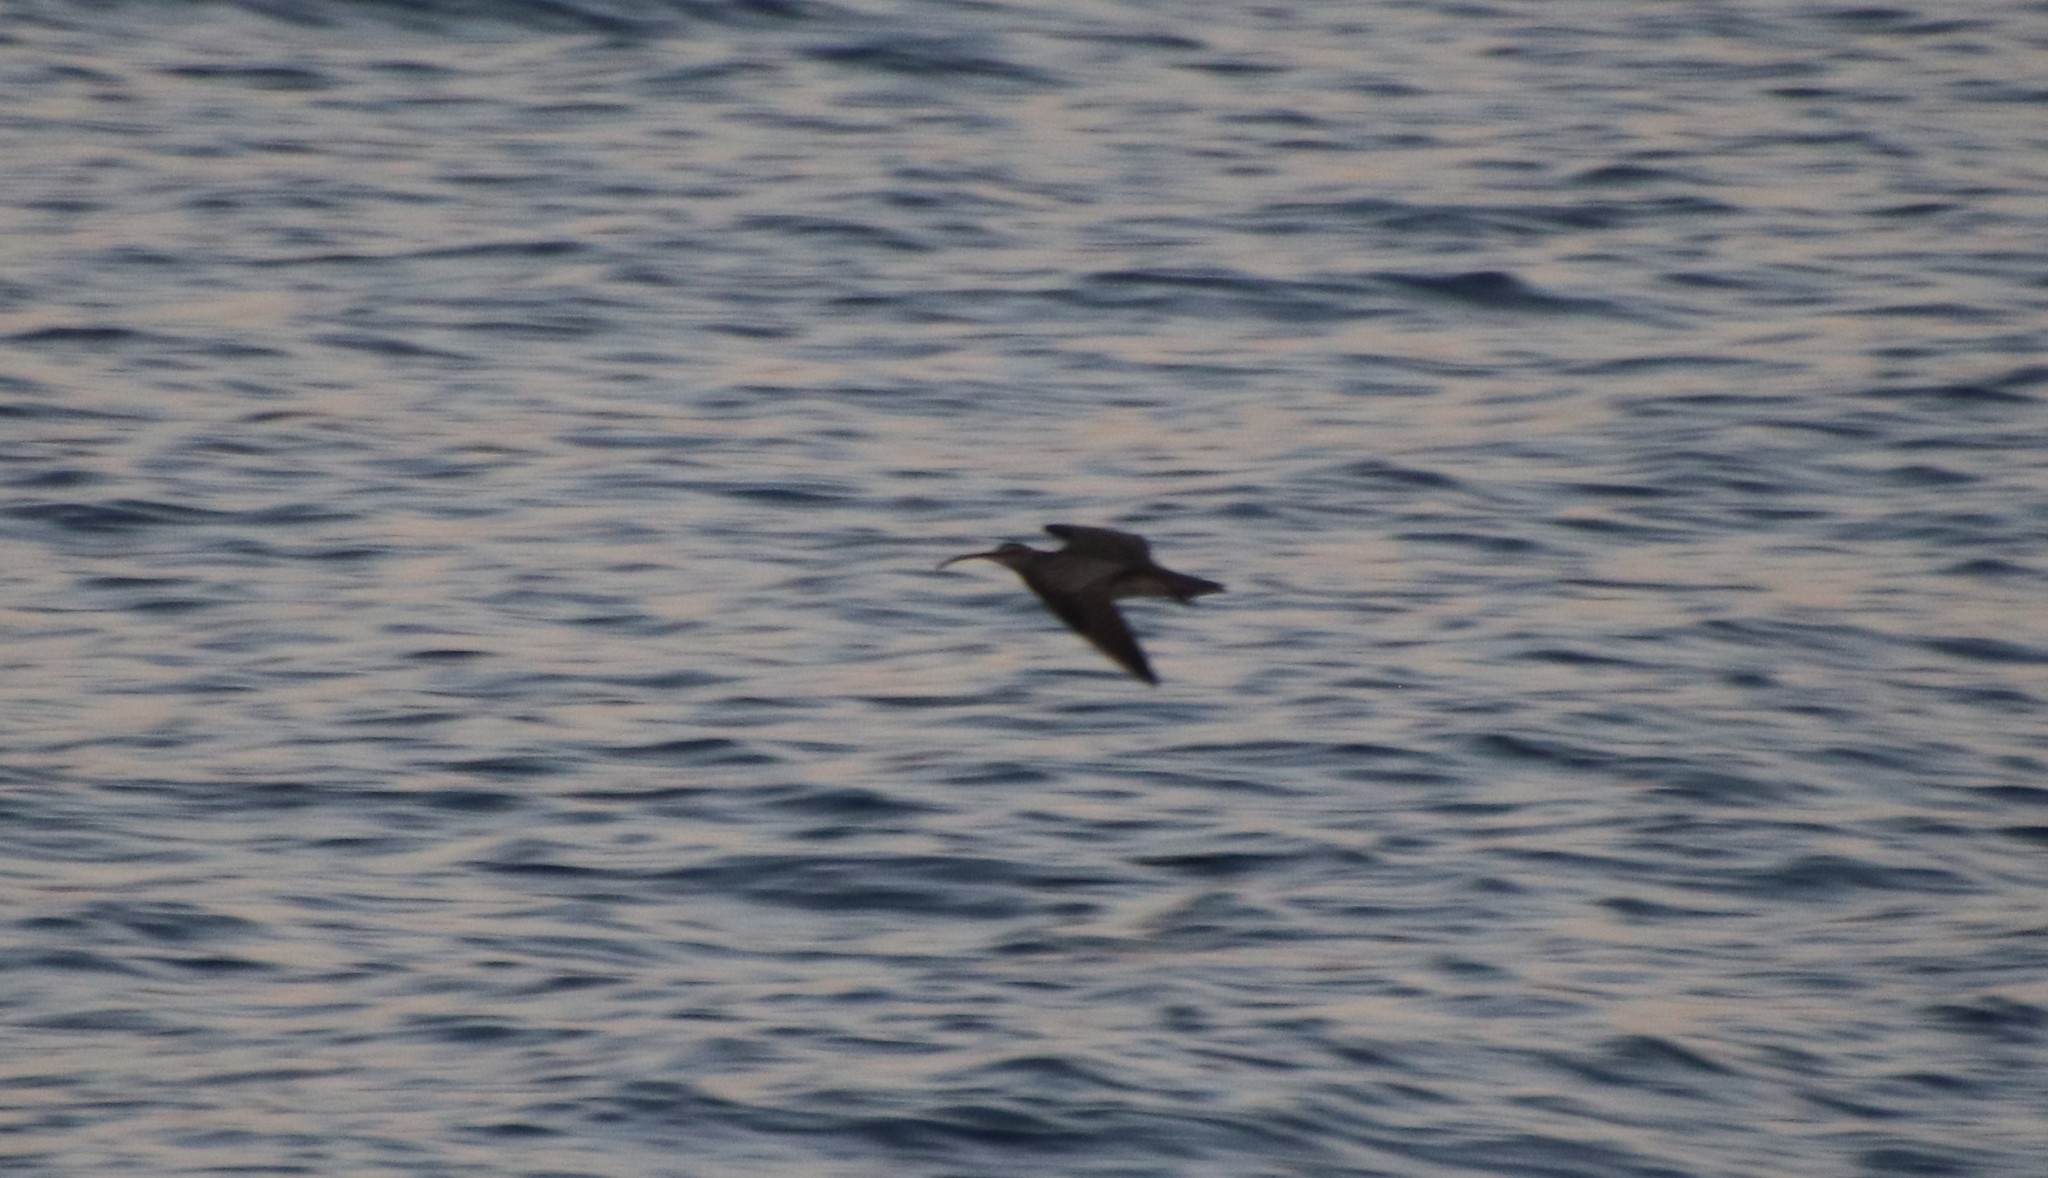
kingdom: Animalia
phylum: Chordata
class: Aves
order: Charadriiformes
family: Scolopacidae
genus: Numenius
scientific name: Numenius phaeopus
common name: Whimbrel
